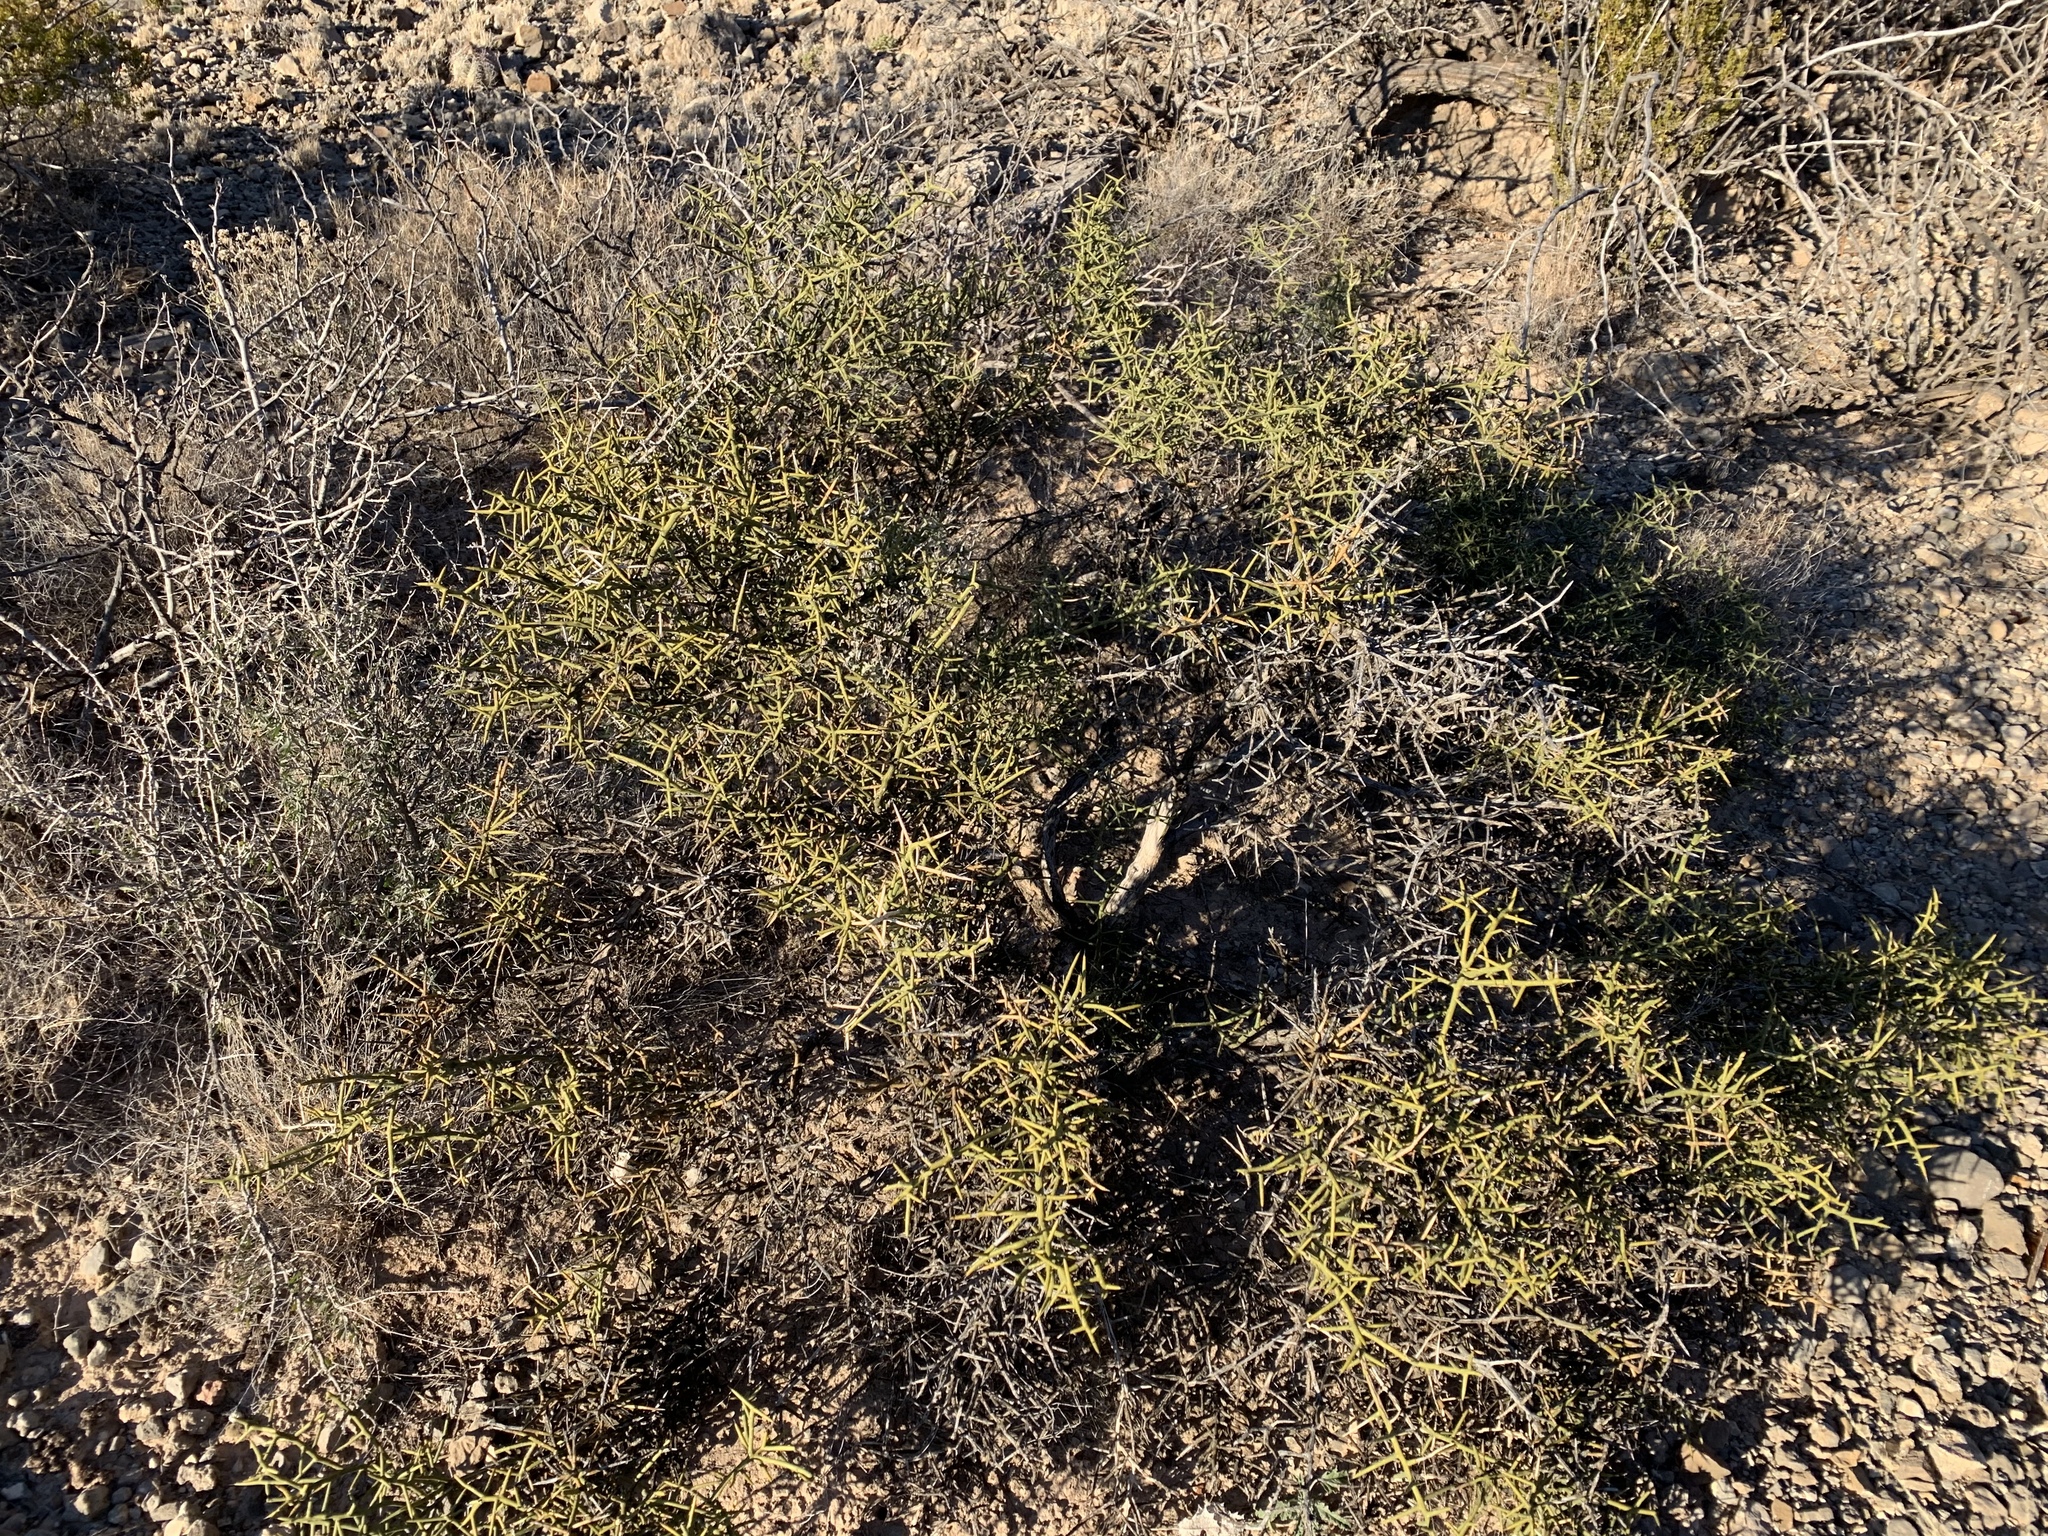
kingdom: Plantae
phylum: Tracheophyta
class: Magnoliopsida
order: Brassicales
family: Koeberliniaceae
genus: Koeberlinia
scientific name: Koeberlinia spinosa
